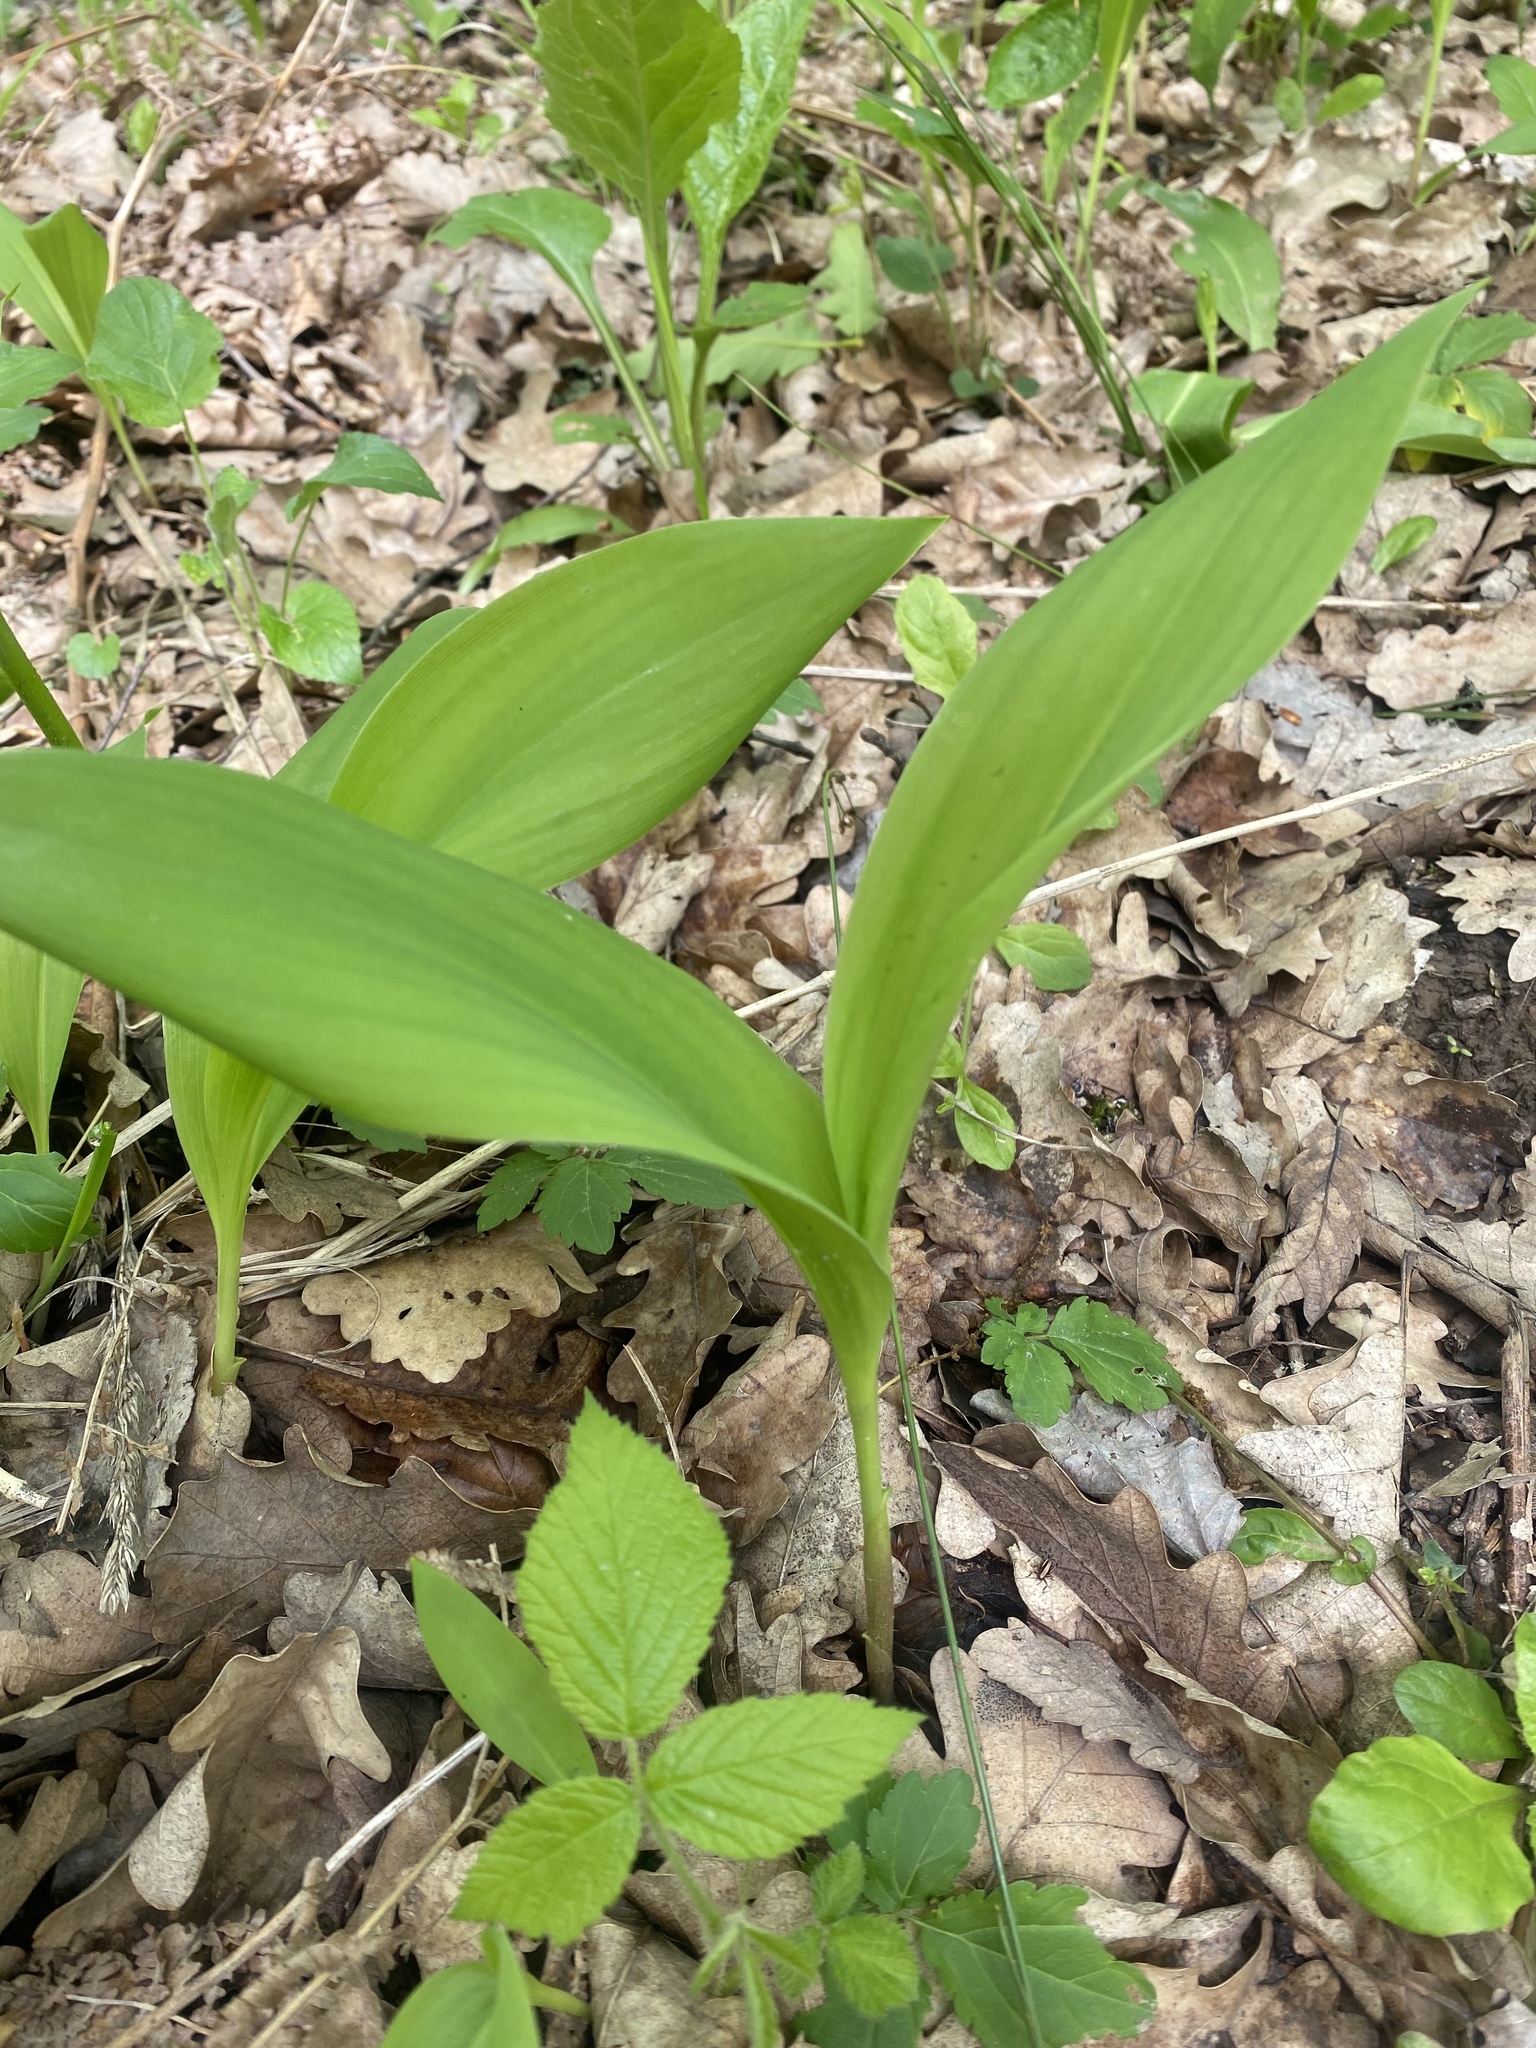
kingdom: Plantae
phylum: Tracheophyta
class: Liliopsida
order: Asparagales
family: Asparagaceae
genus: Convallaria
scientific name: Convallaria majalis
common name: Lily-of-the-valley
